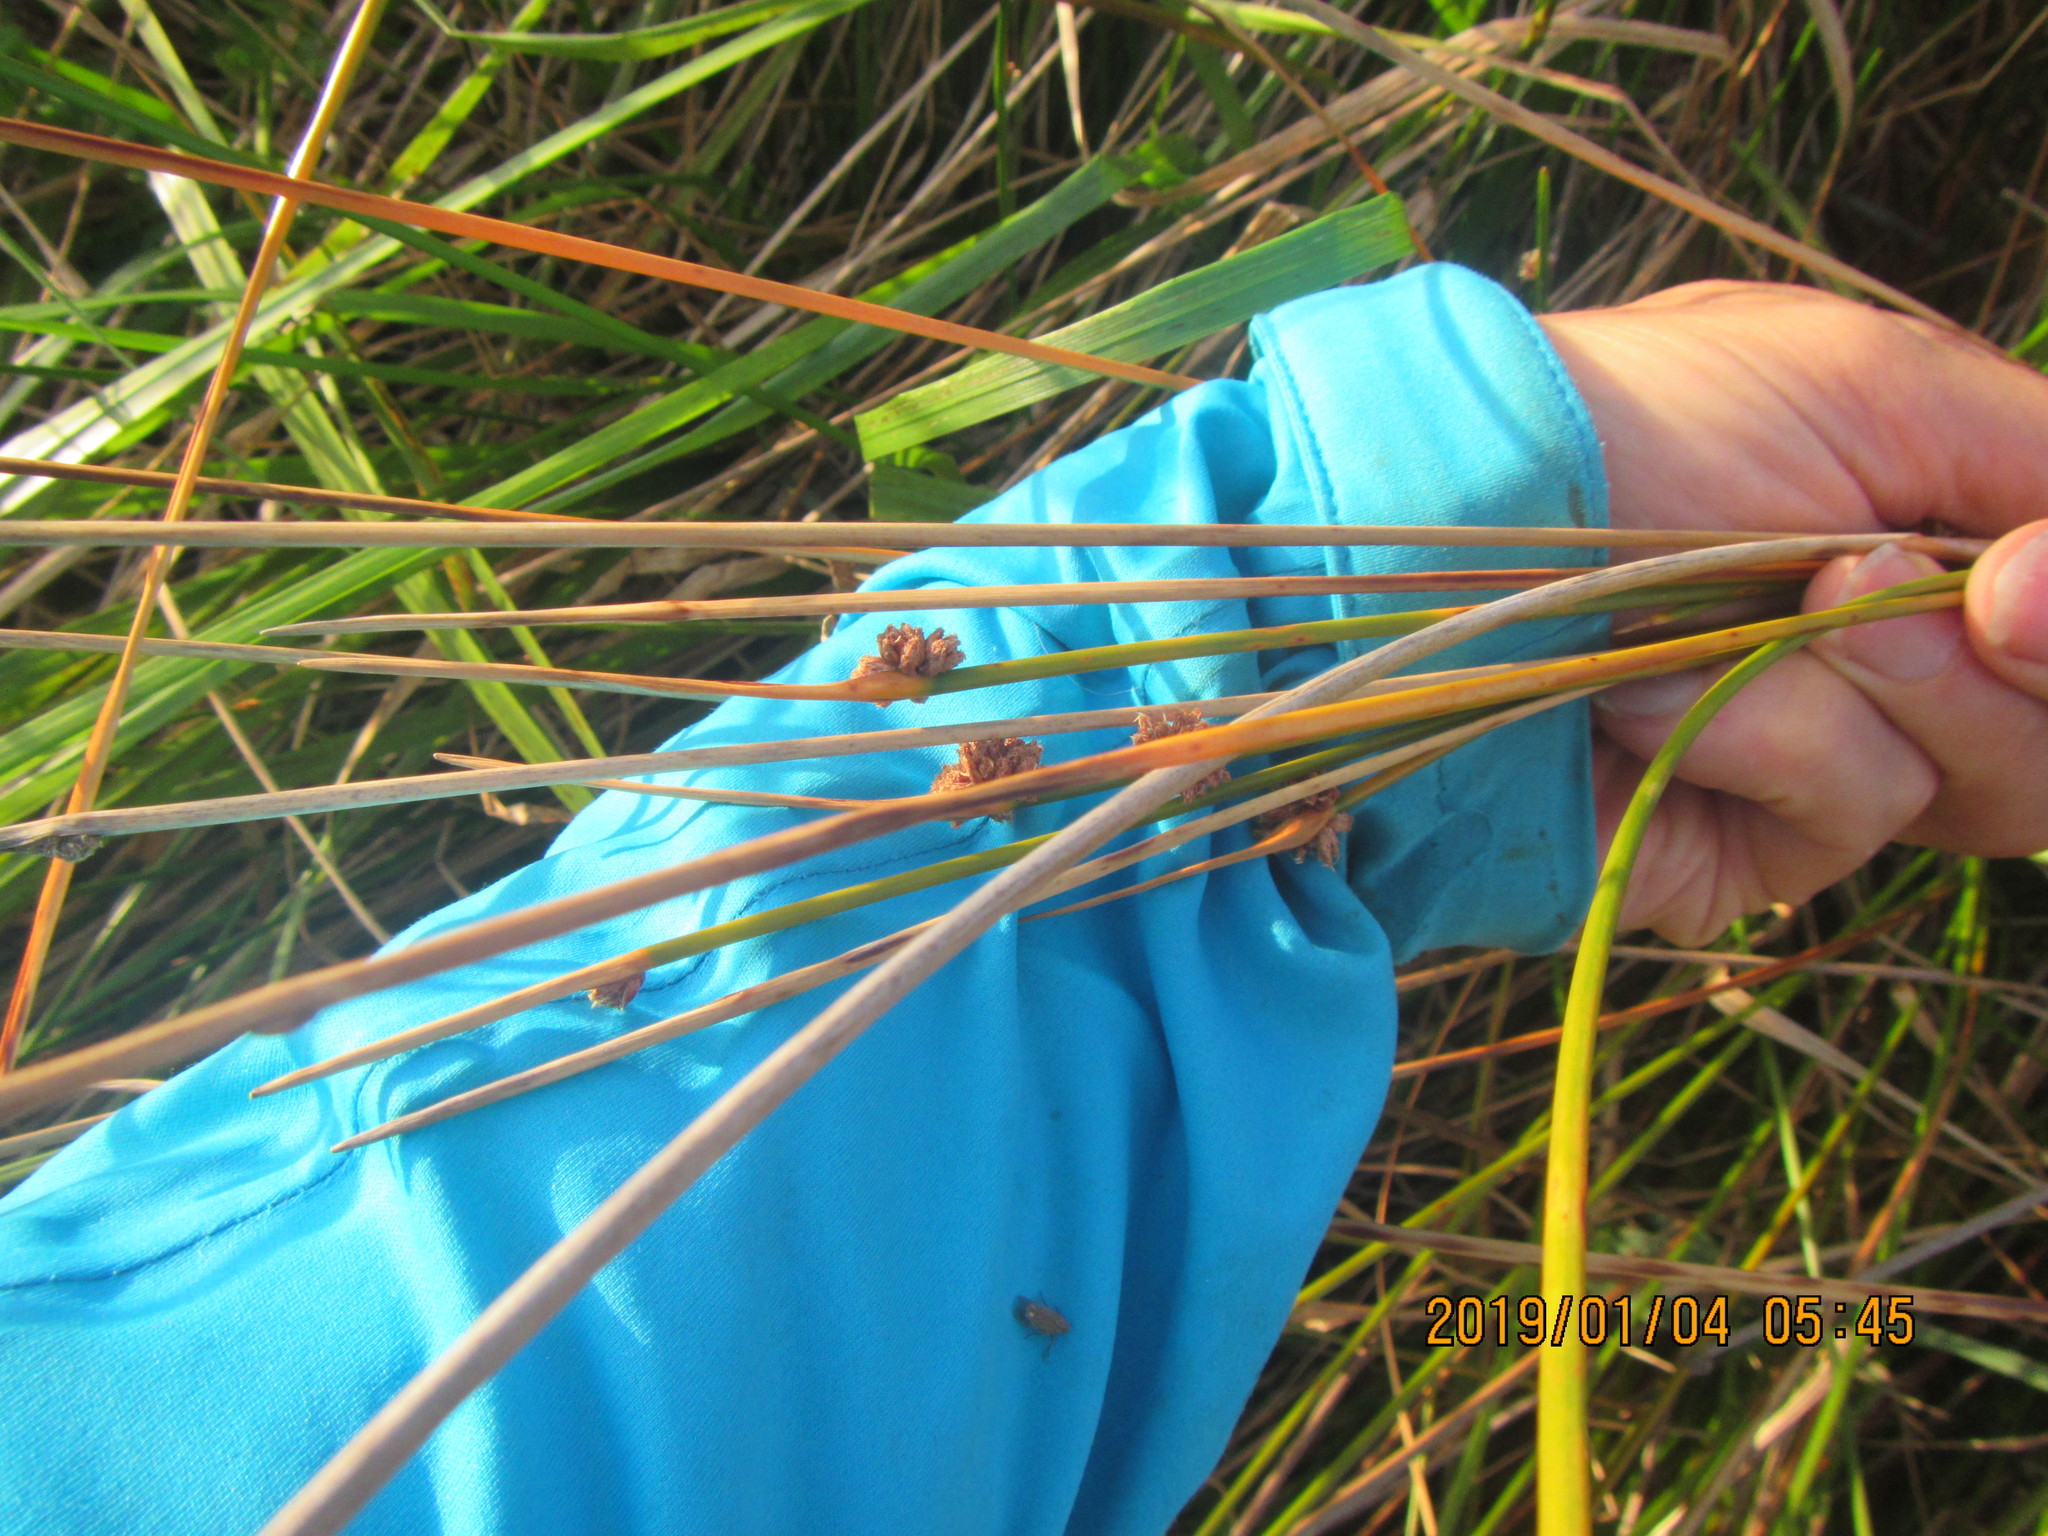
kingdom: Plantae
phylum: Tracheophyta
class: Liliopsida
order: Poales
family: Cyperaceae
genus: Ficinia
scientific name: Ficinia nodosa
